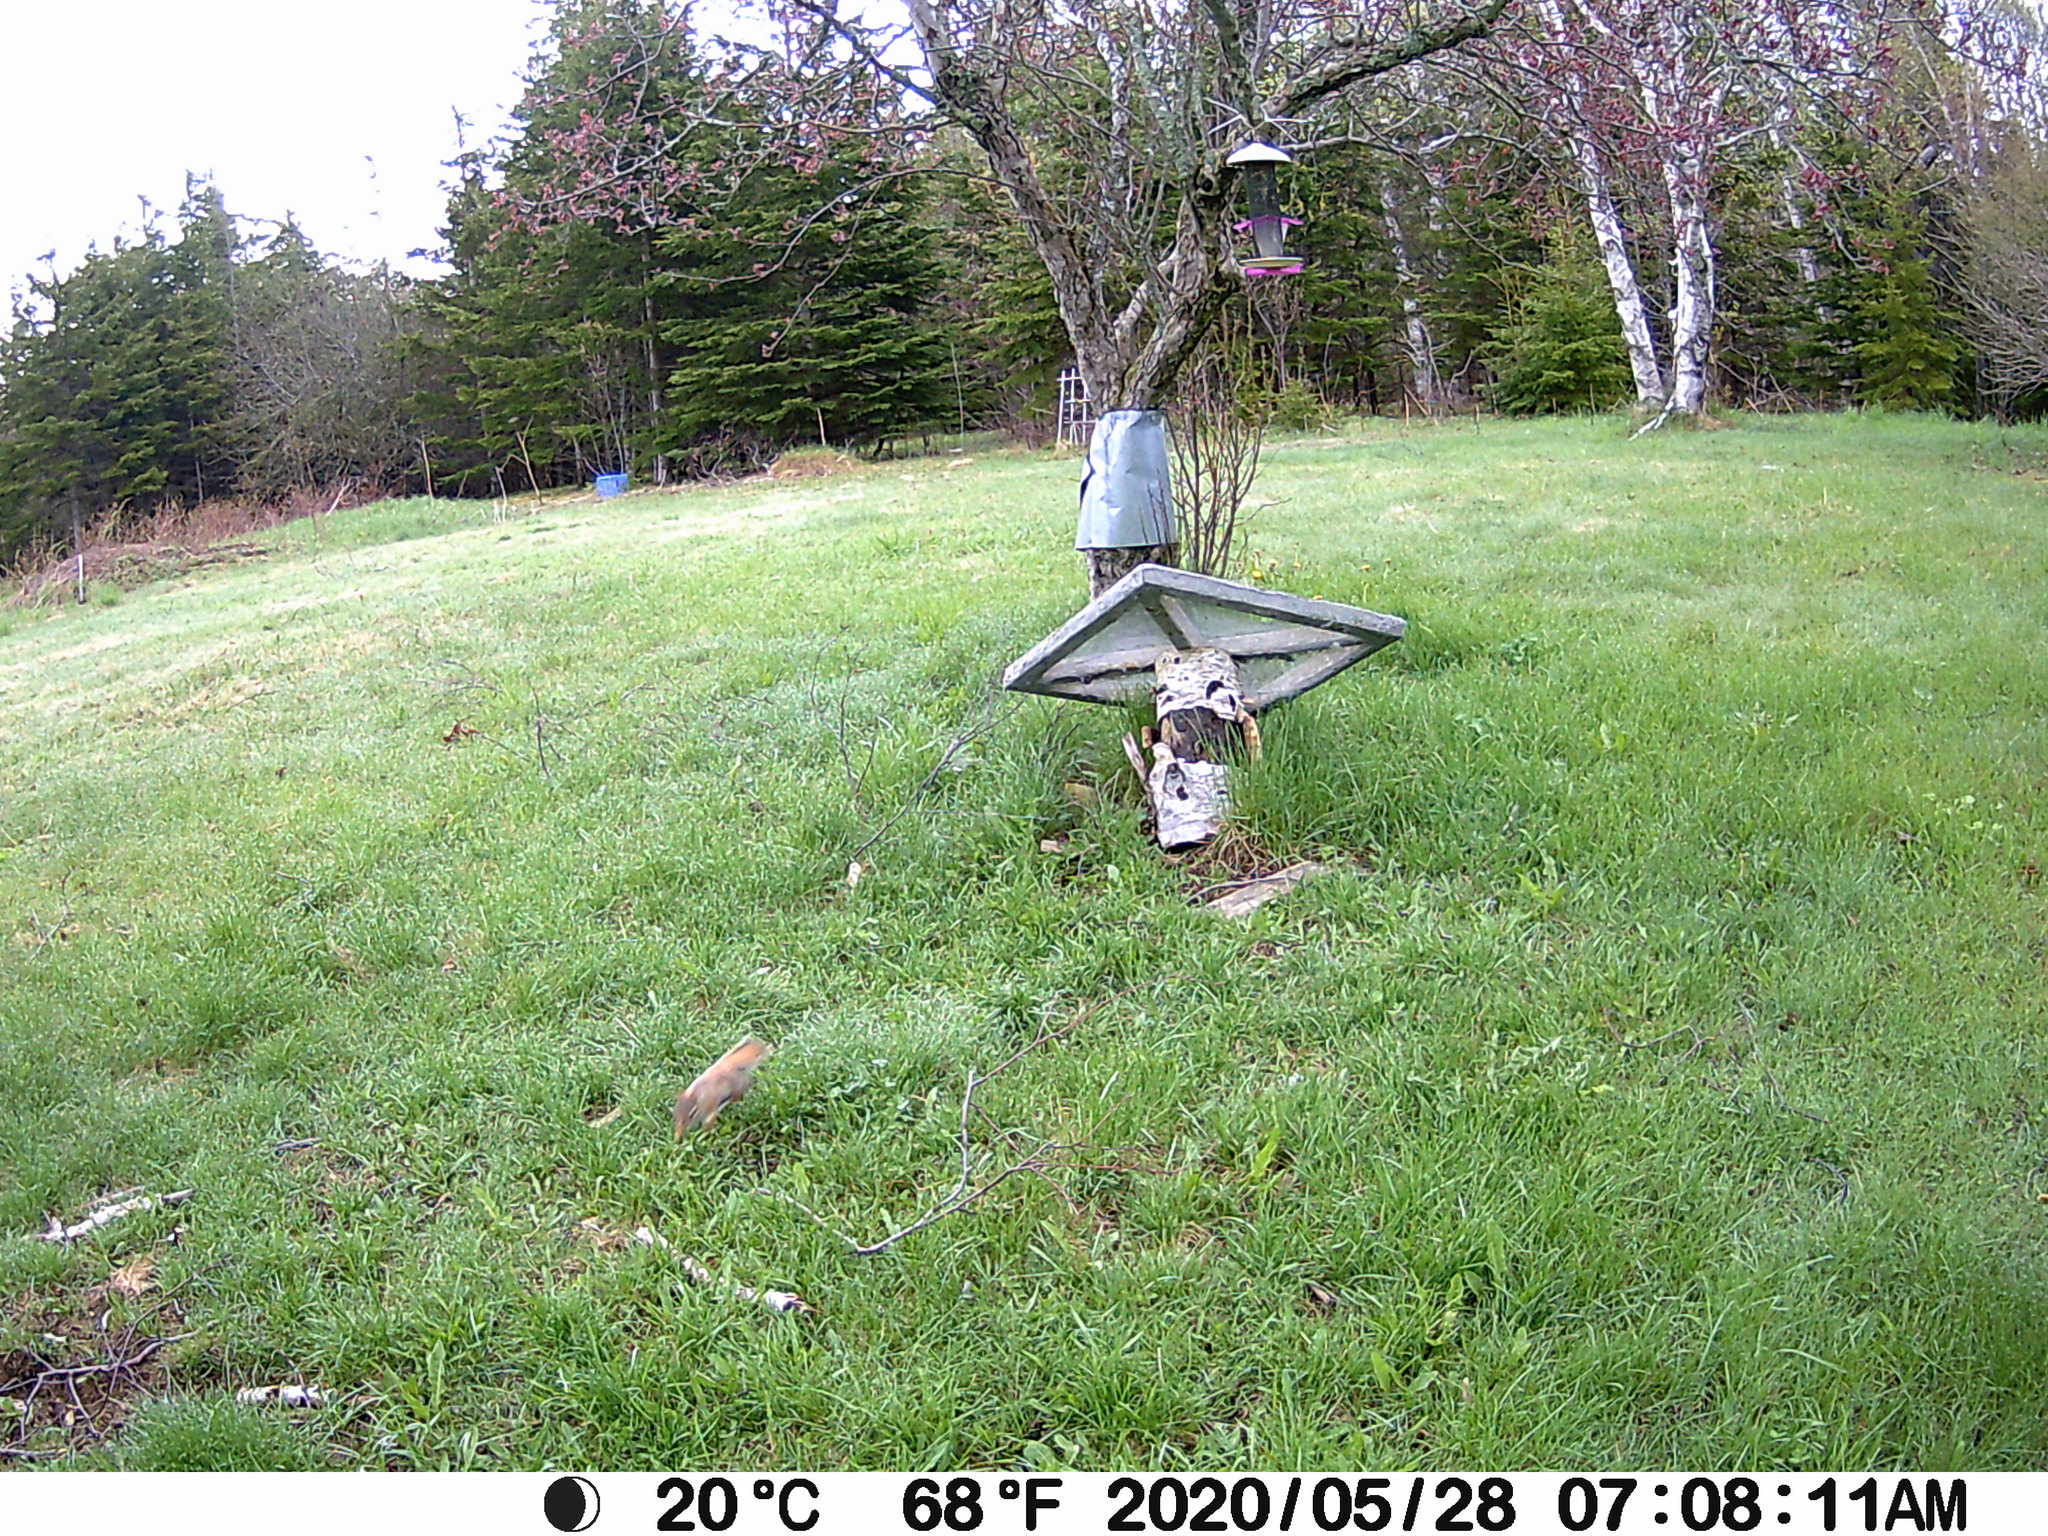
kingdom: Animalia
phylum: Chordata
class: Mammalia
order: Rodentia
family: Sciuridae
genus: Tamiasciurus
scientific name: Tamiasciurus hudsonicus
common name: Red squirrel
